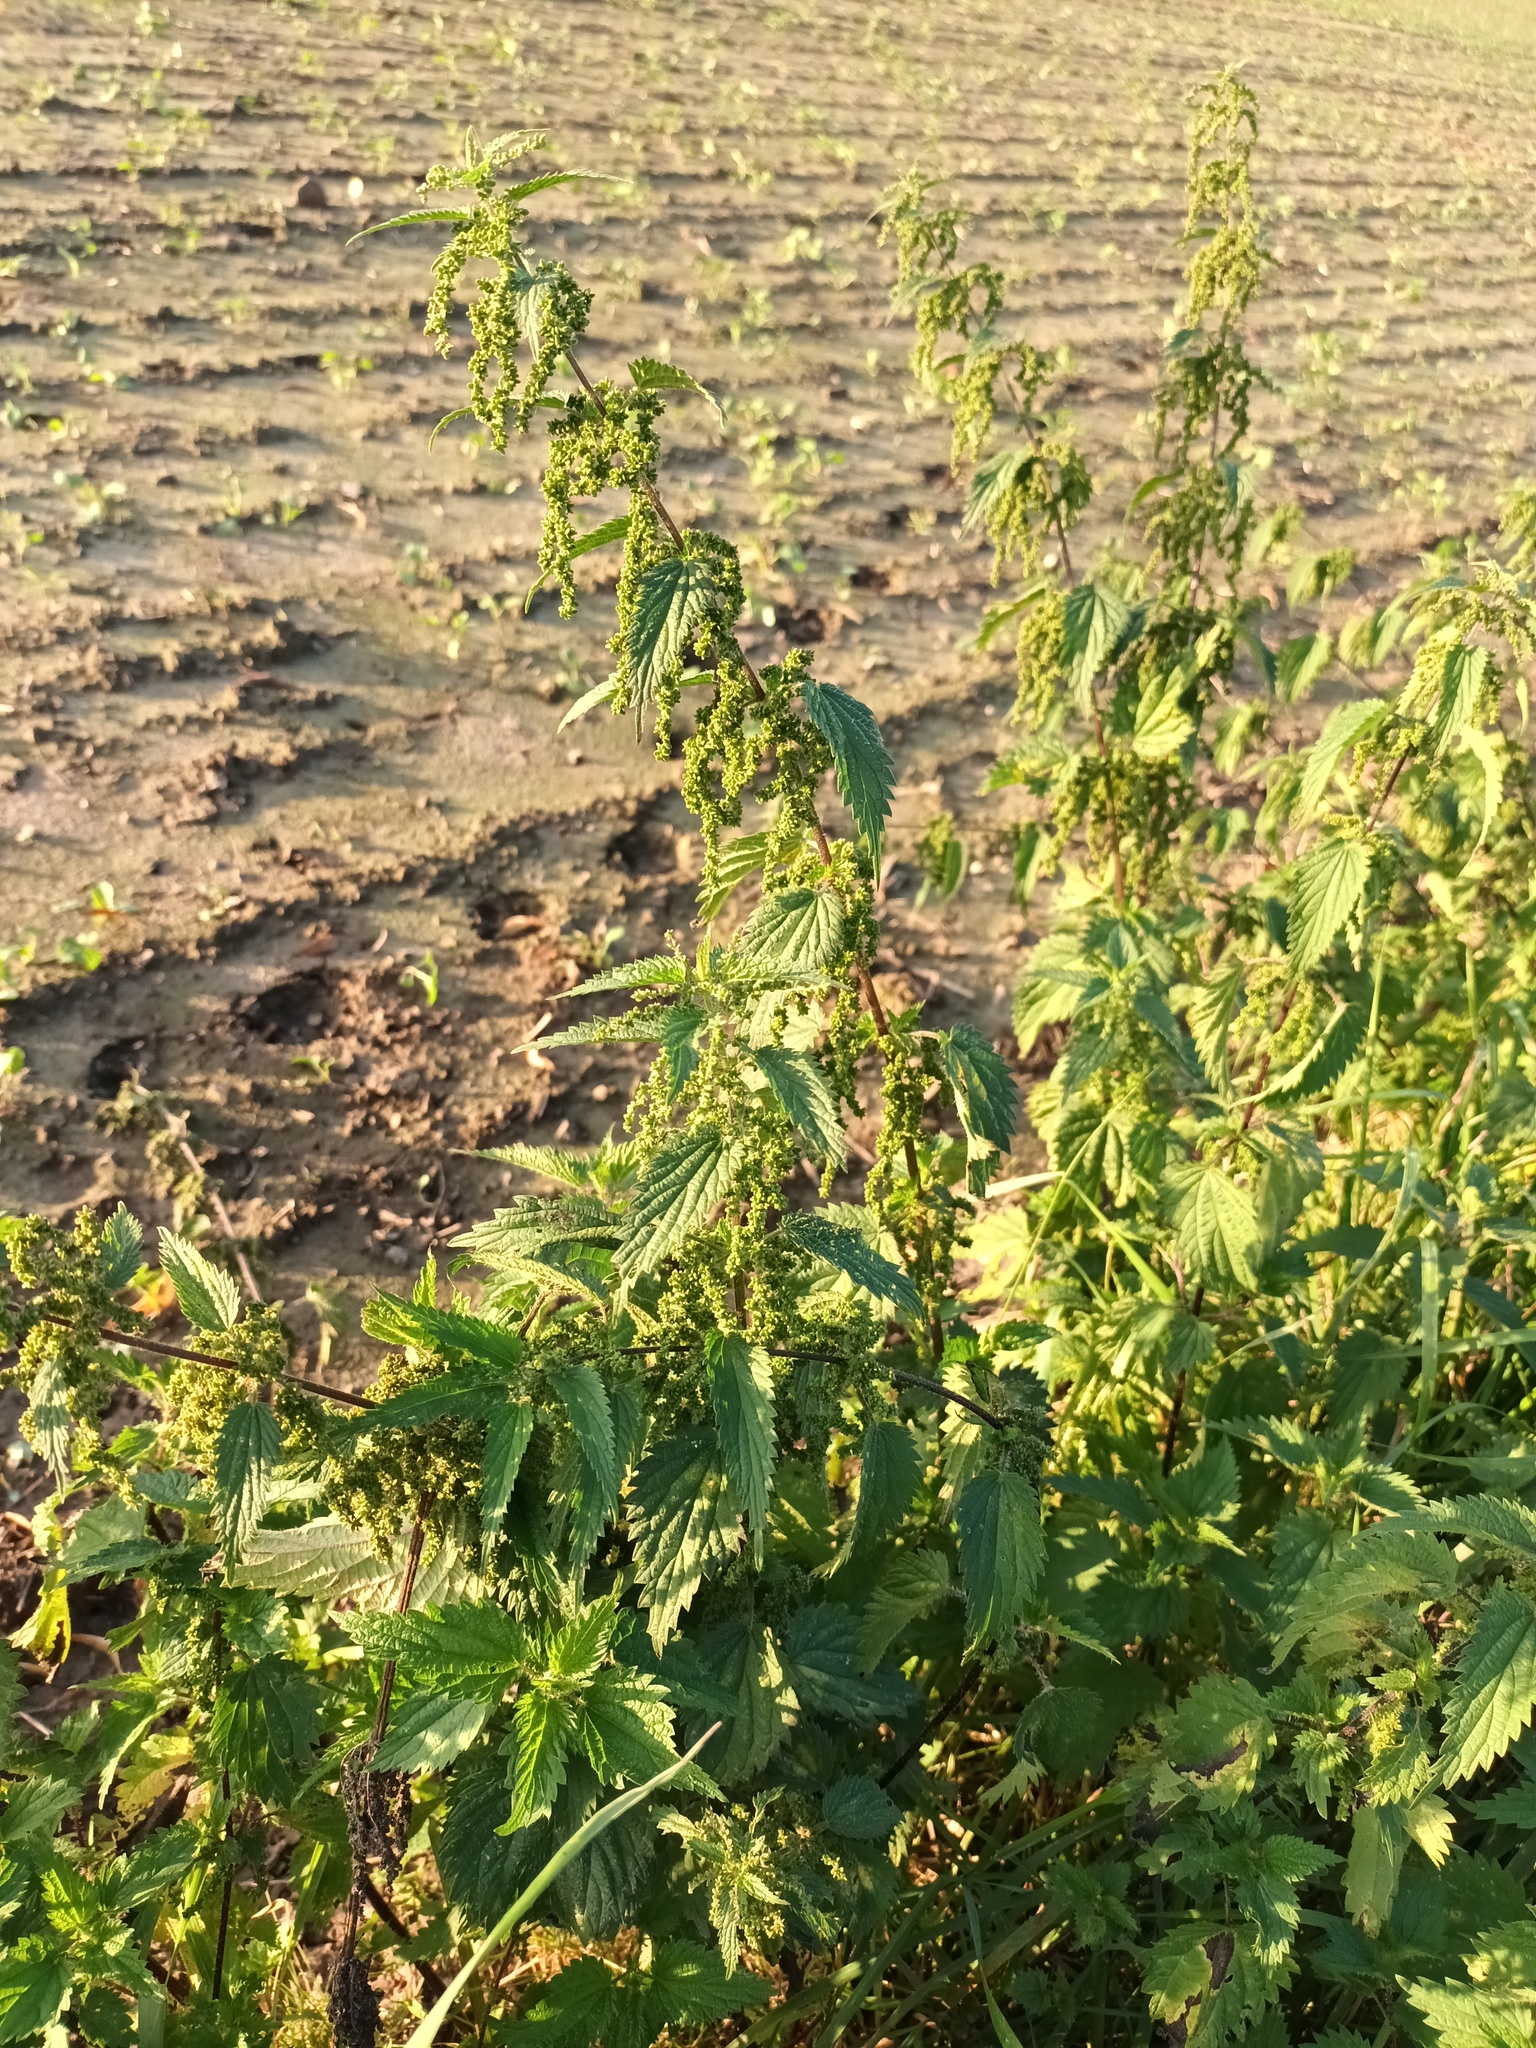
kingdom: Plantae
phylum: Tracheophyta
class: Magnoliopsida
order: Rosales
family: Urticaceae
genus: Urtica
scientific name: Urtica dioica
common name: Common nettle
